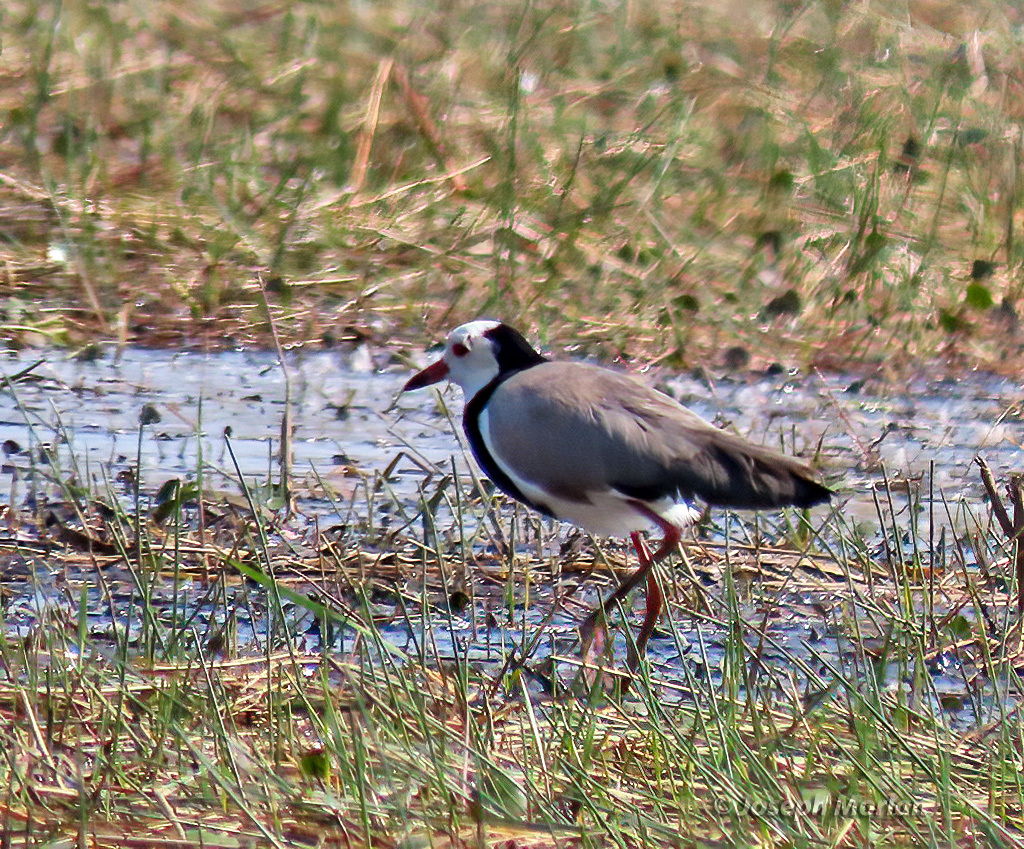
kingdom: Animalia
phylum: Chordata
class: Aves
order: Charadriiformes
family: Charadriidae
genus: Vanellus
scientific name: Vanellus crassirostris
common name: Long-toed lapwing
